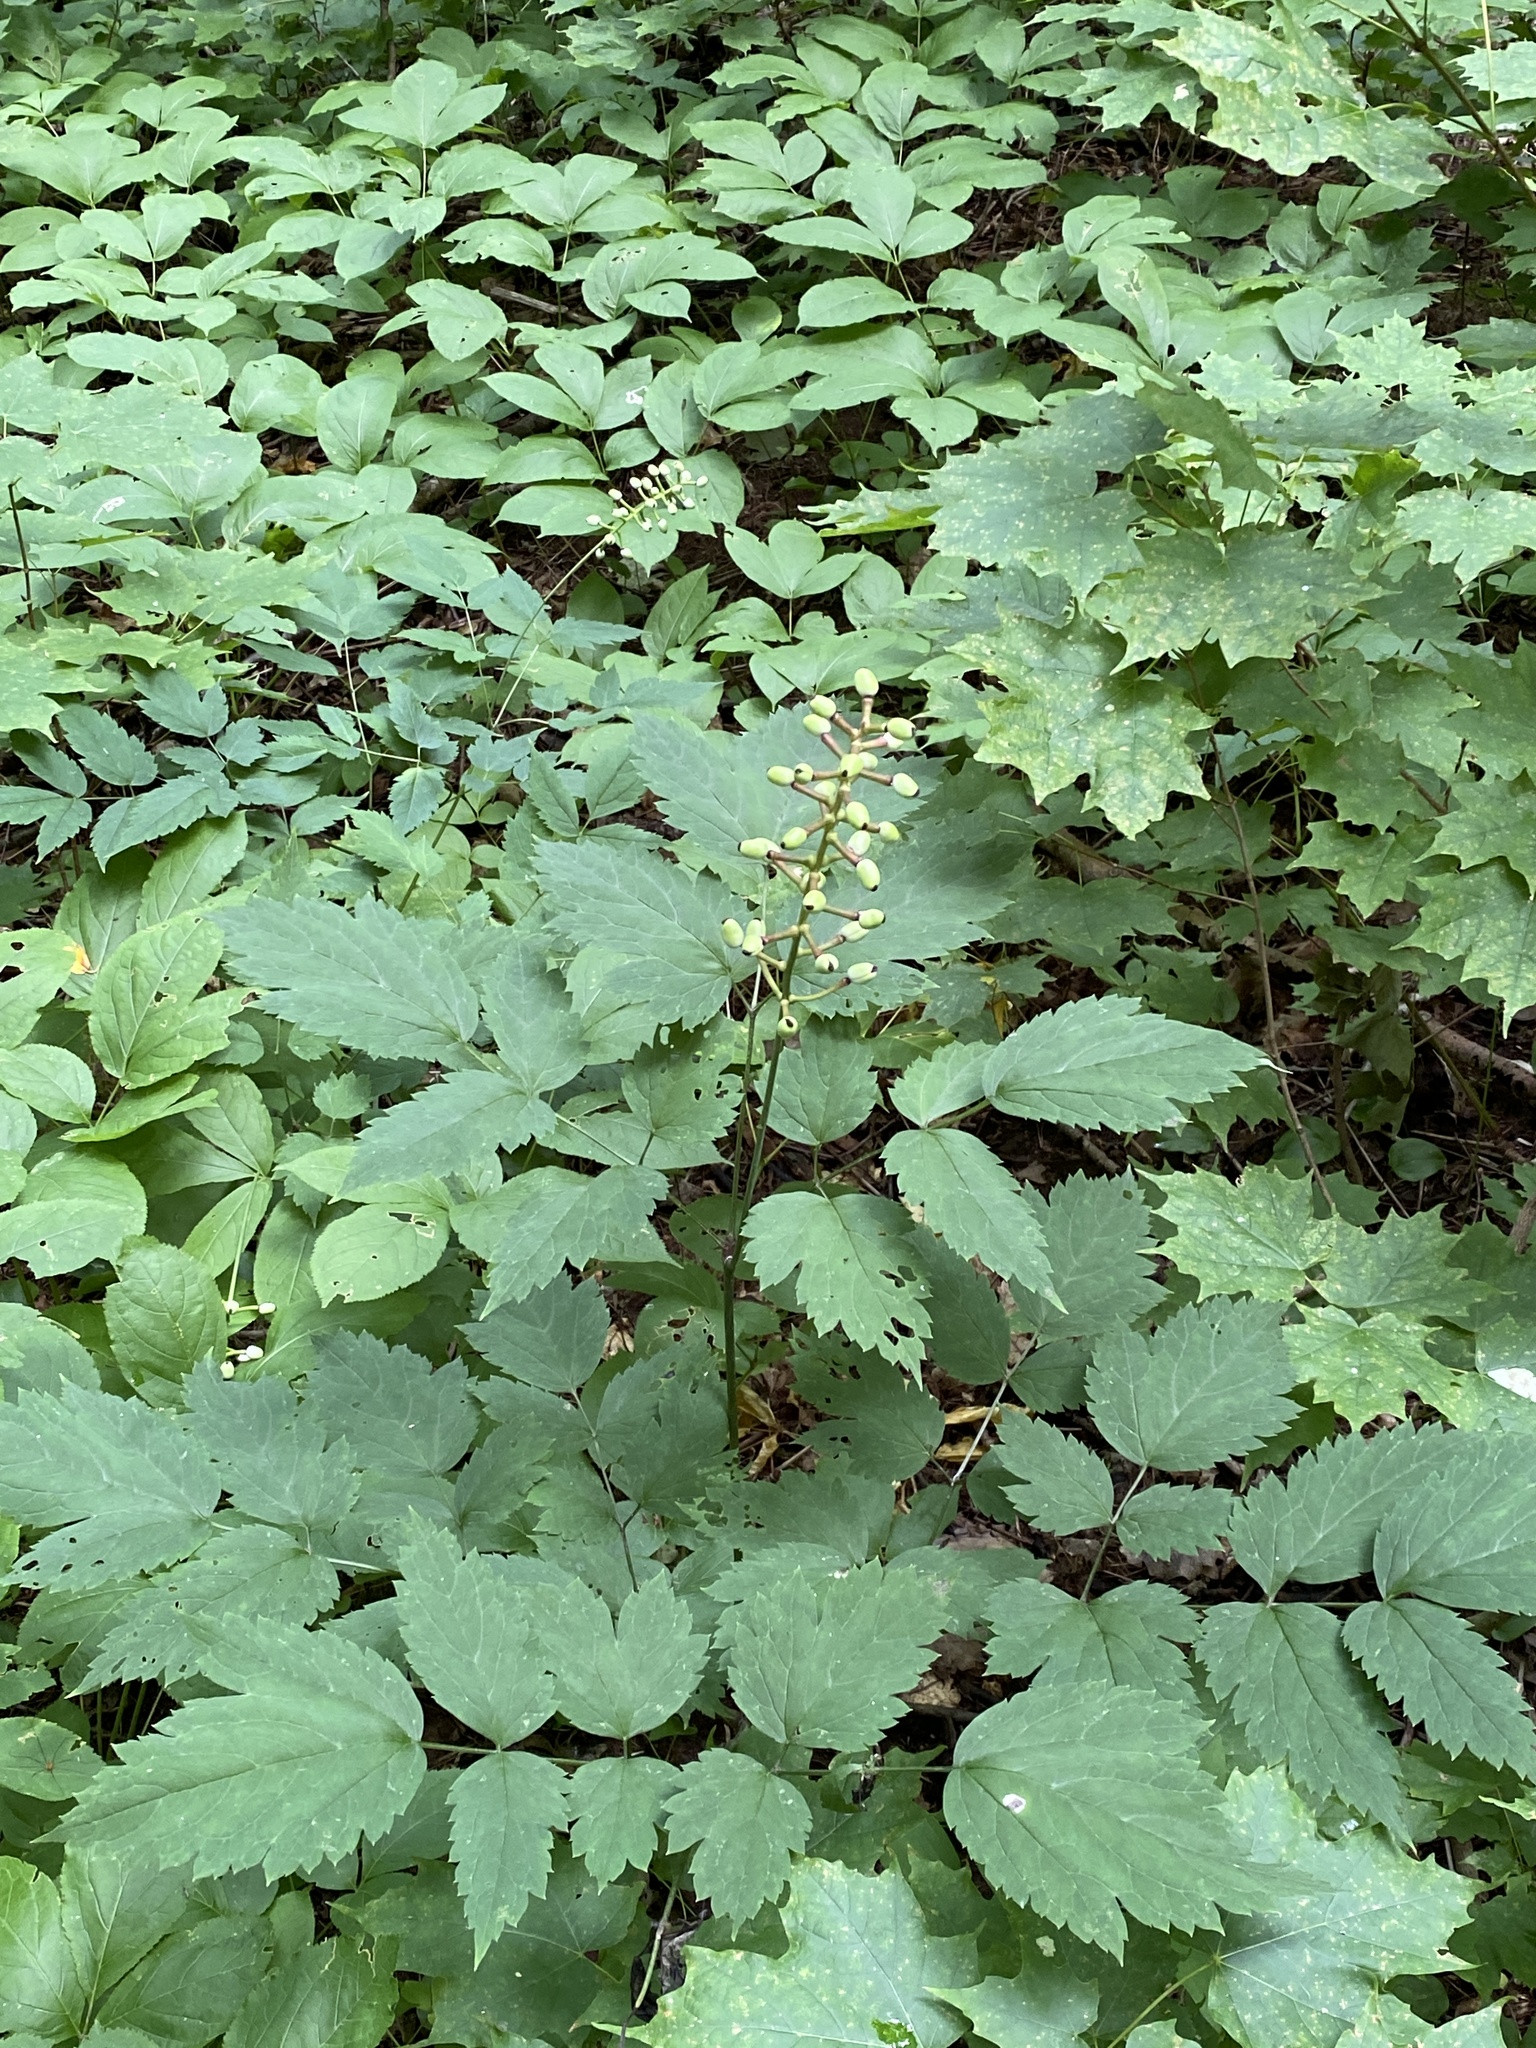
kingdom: Plantae
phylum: Tracheophyta
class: Magnoliopsida
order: Ranunculales
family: Ranunculaceae
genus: Actaea
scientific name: Actaea pachypoda
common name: Doll's-eyes
